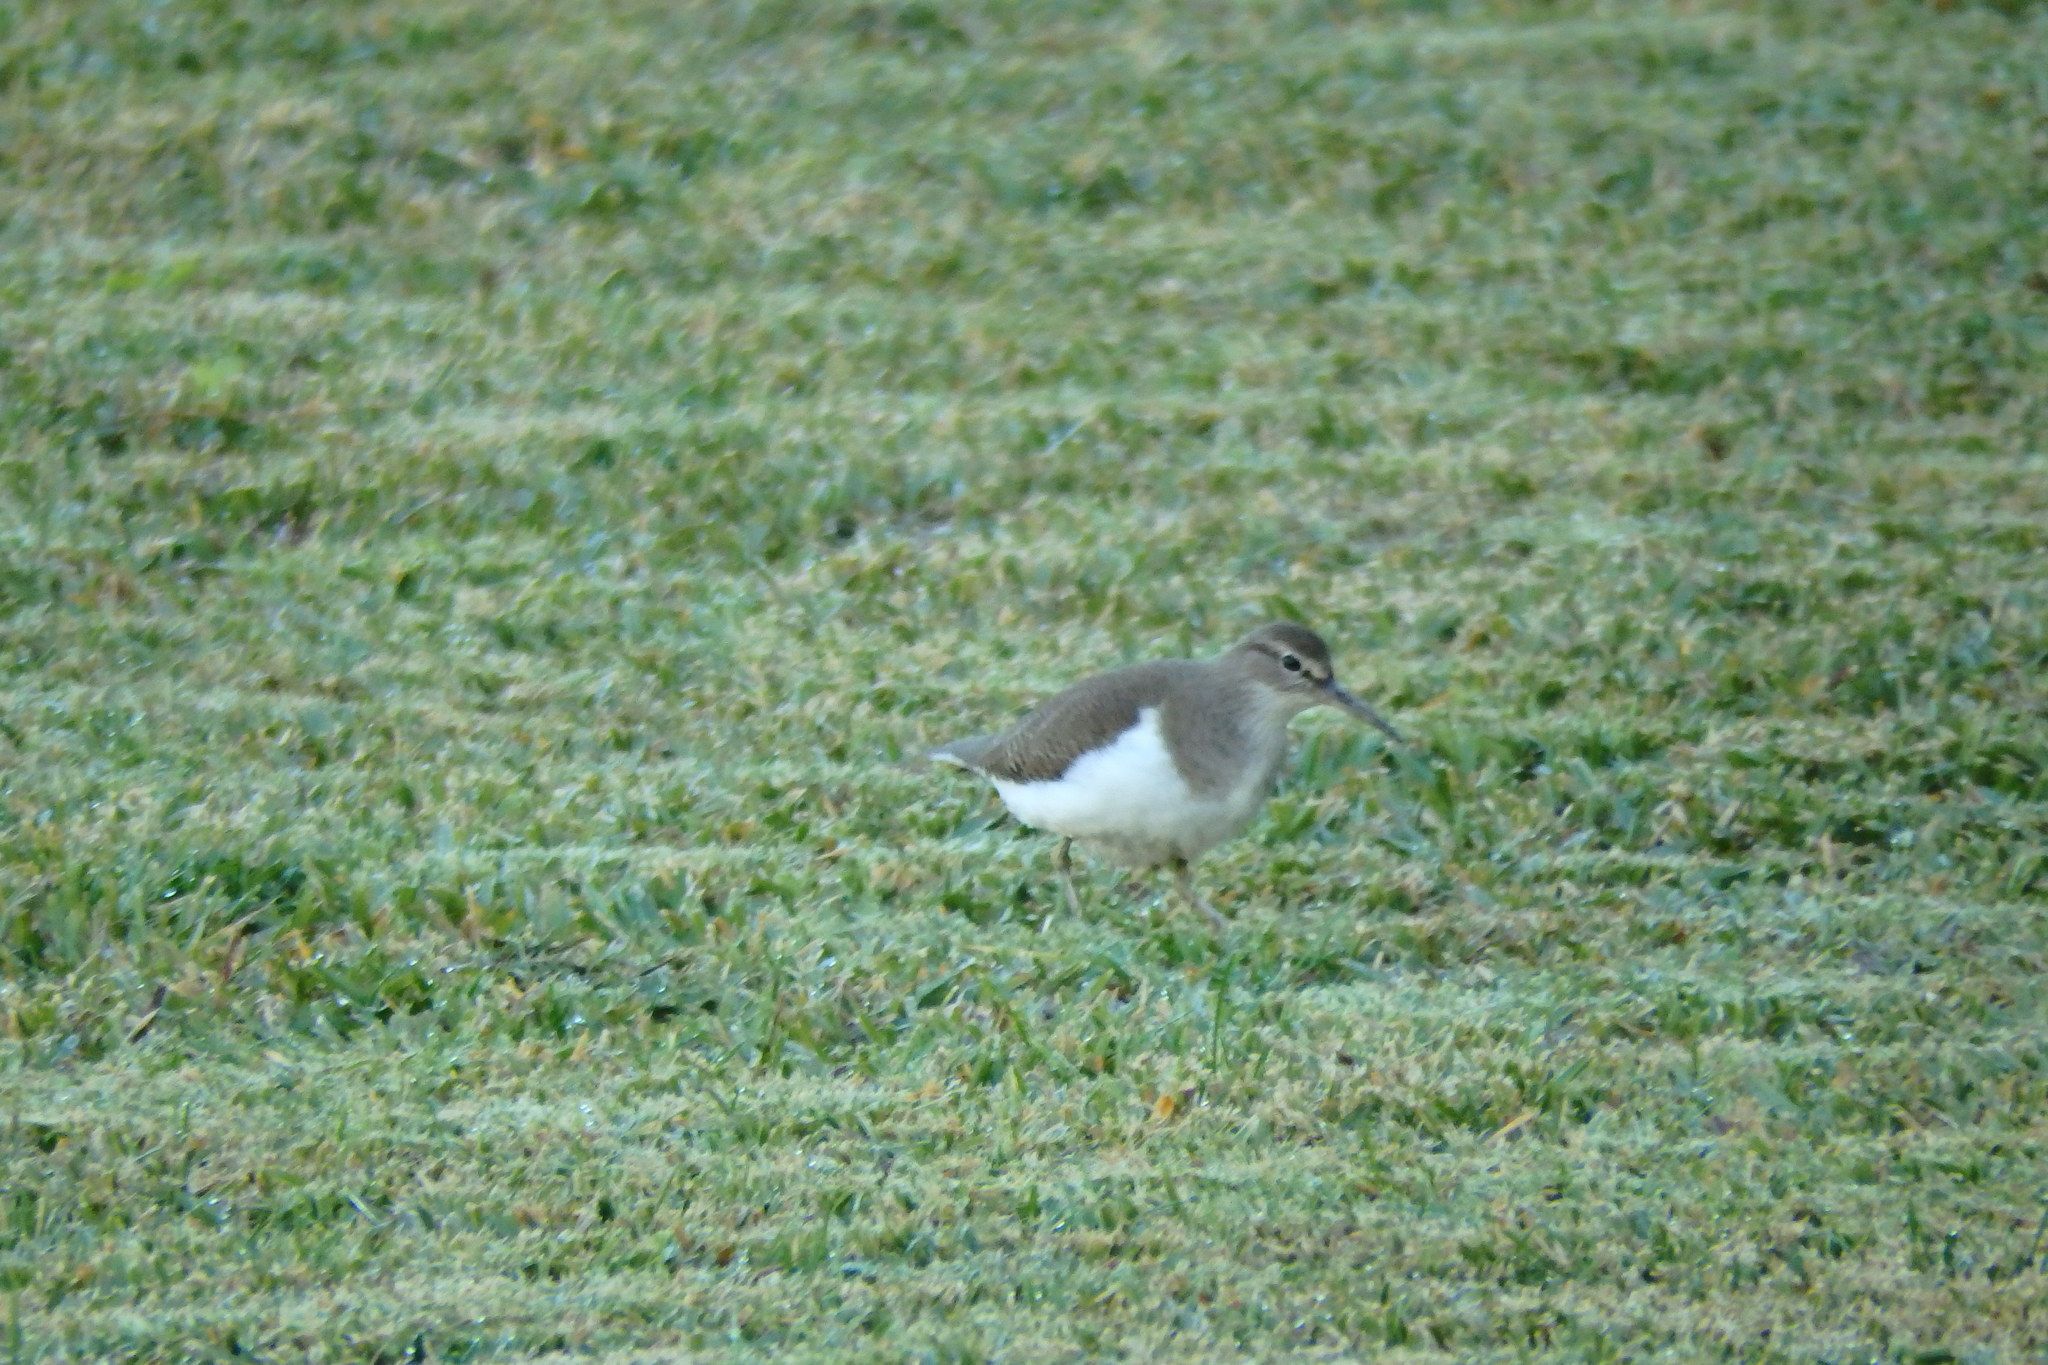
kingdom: Animalia
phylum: Chordata
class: Aves
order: Charadriiformes
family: Scolopacidae
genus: Actitis
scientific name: Actitis hypoleucos
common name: Common sandpiper
